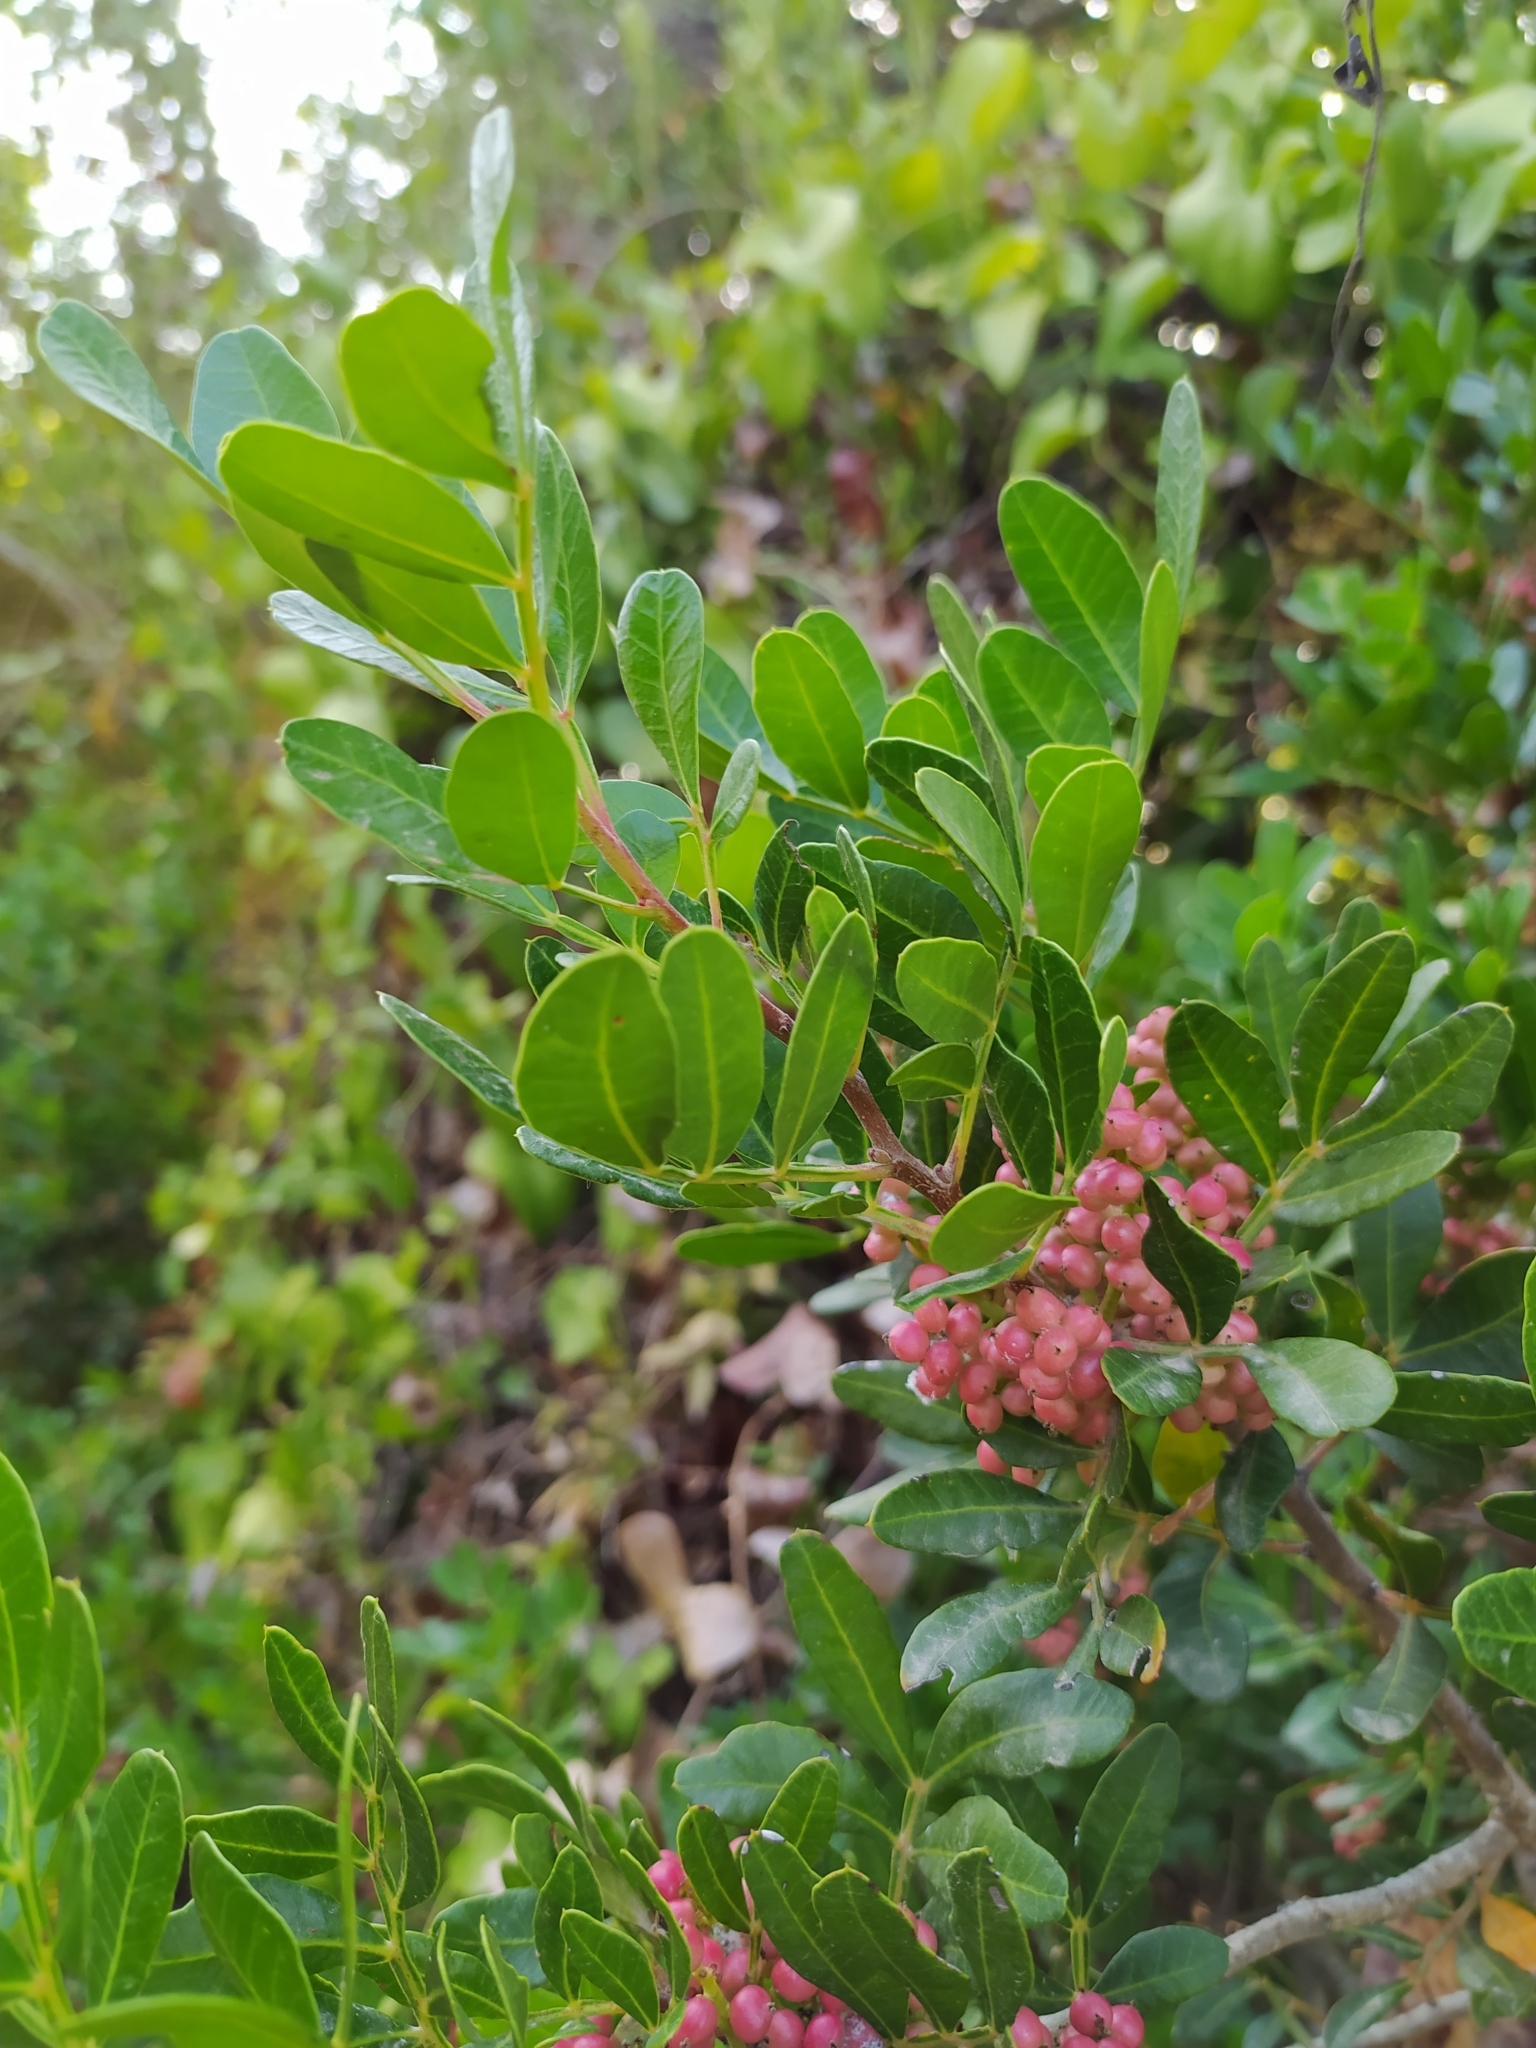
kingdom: Plantae
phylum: Tracheophyta
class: Magnoliopsida
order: Sapindales
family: Anacardiaceae
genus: Pistacia
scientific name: Pistacia lentiscus
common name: Lentisk
